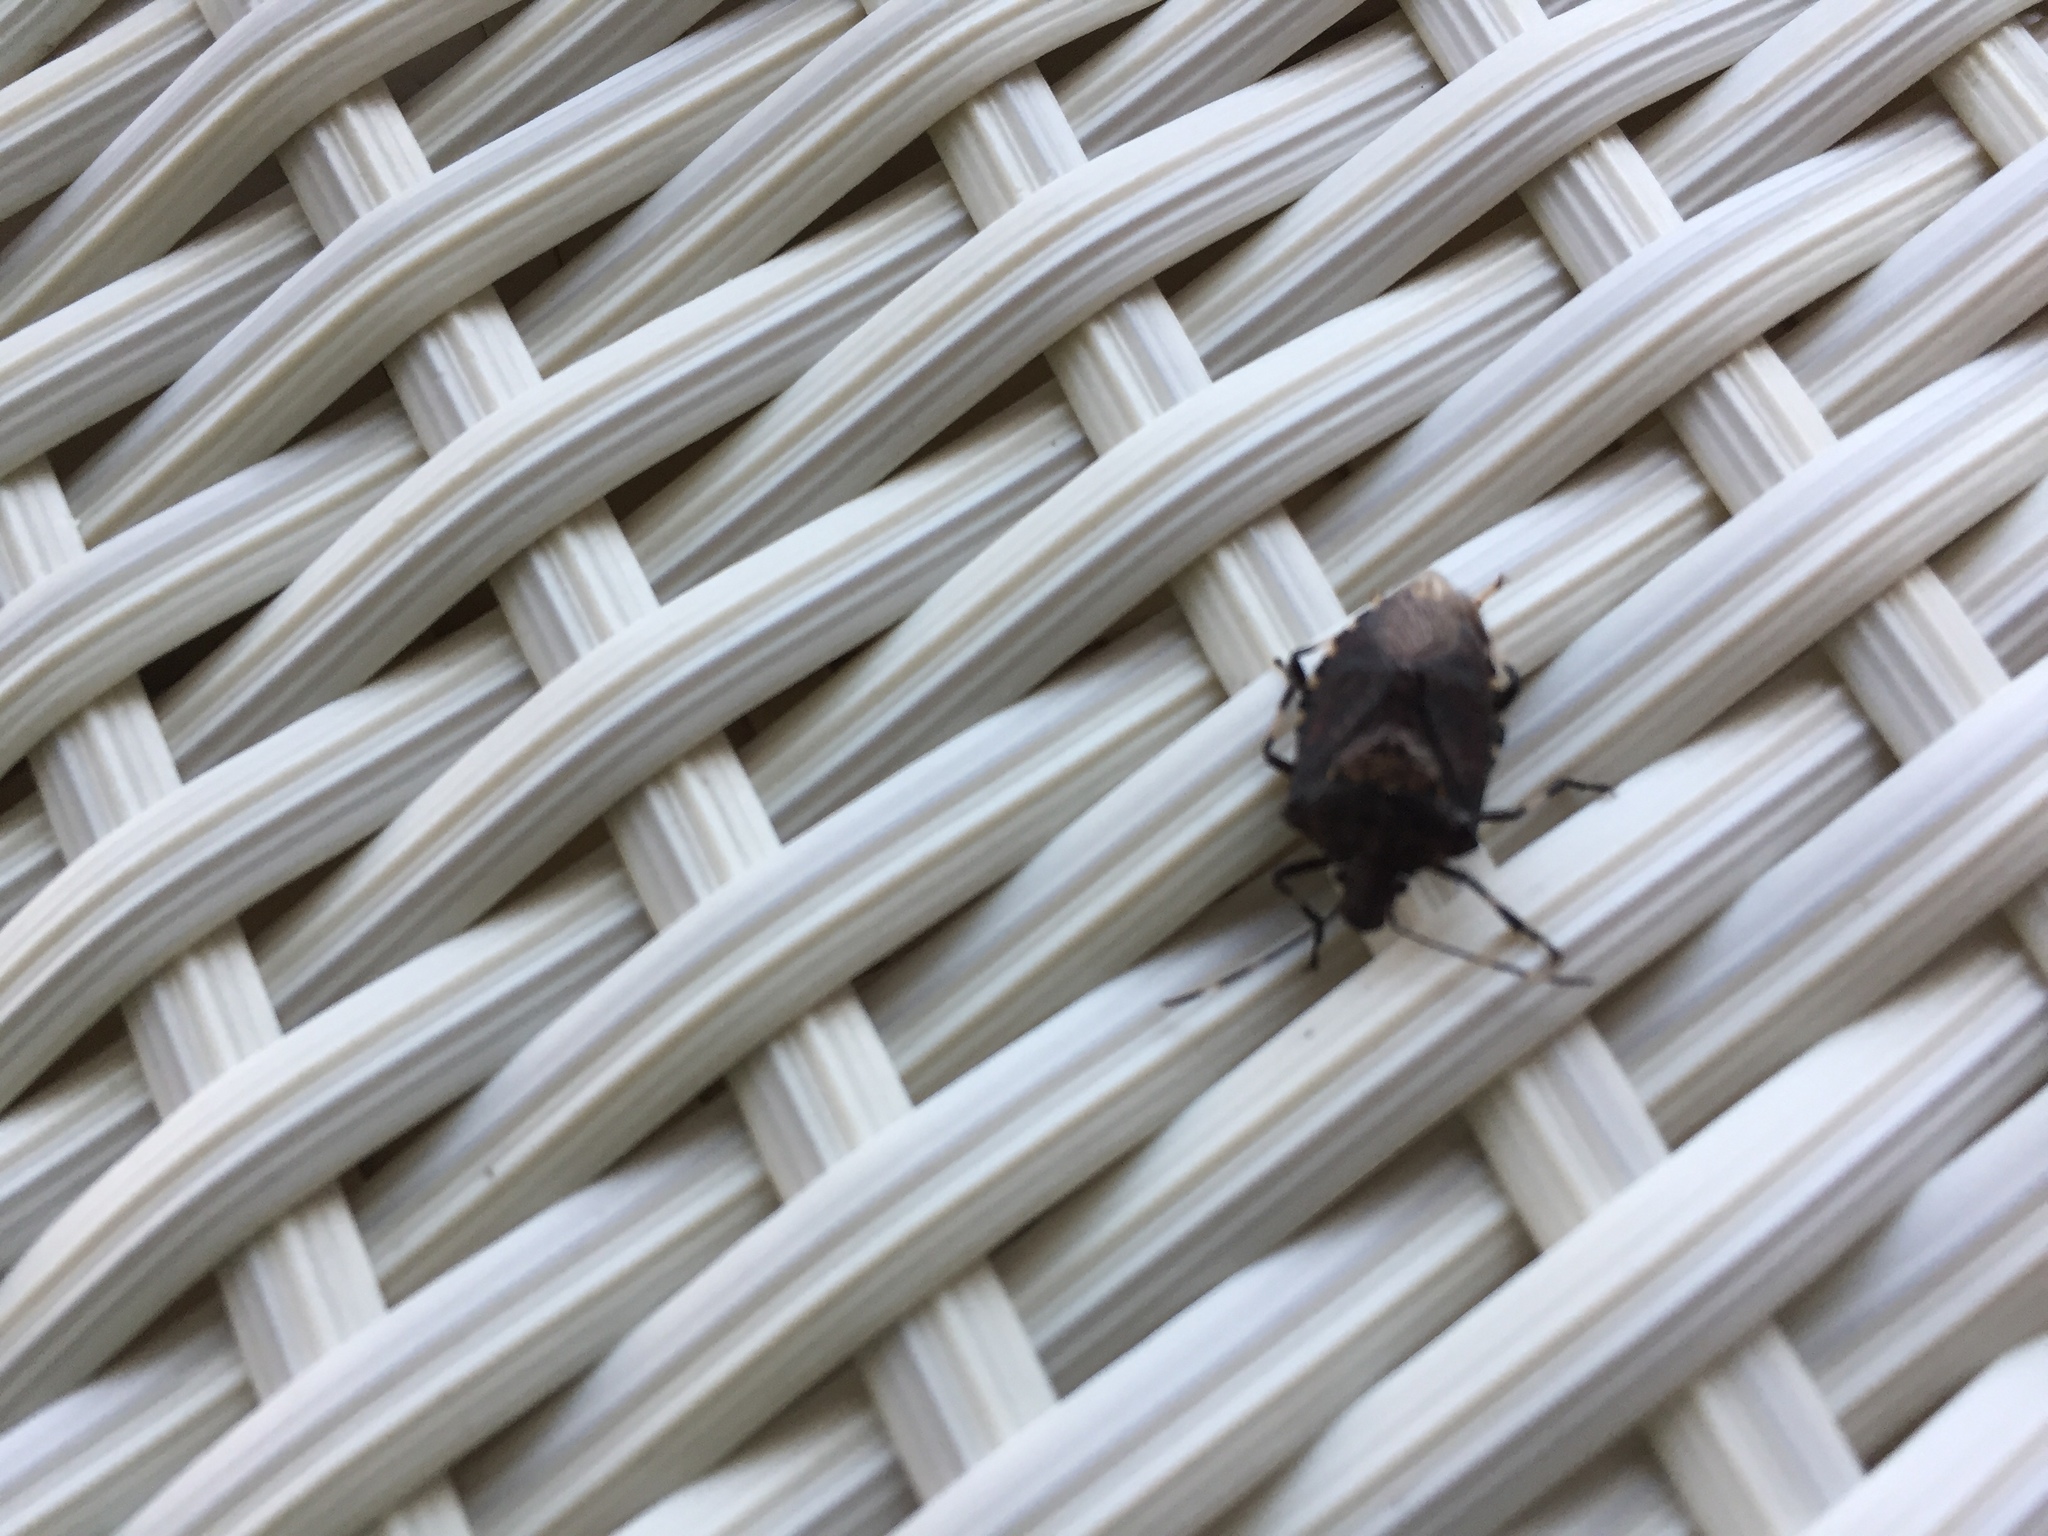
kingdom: Animalia
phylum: Arthropoda
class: Insecta
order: Hemiptera
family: Pentatomidae
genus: Halyomorpha
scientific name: Halyomorpha halys
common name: Brown marmorated stink bug
